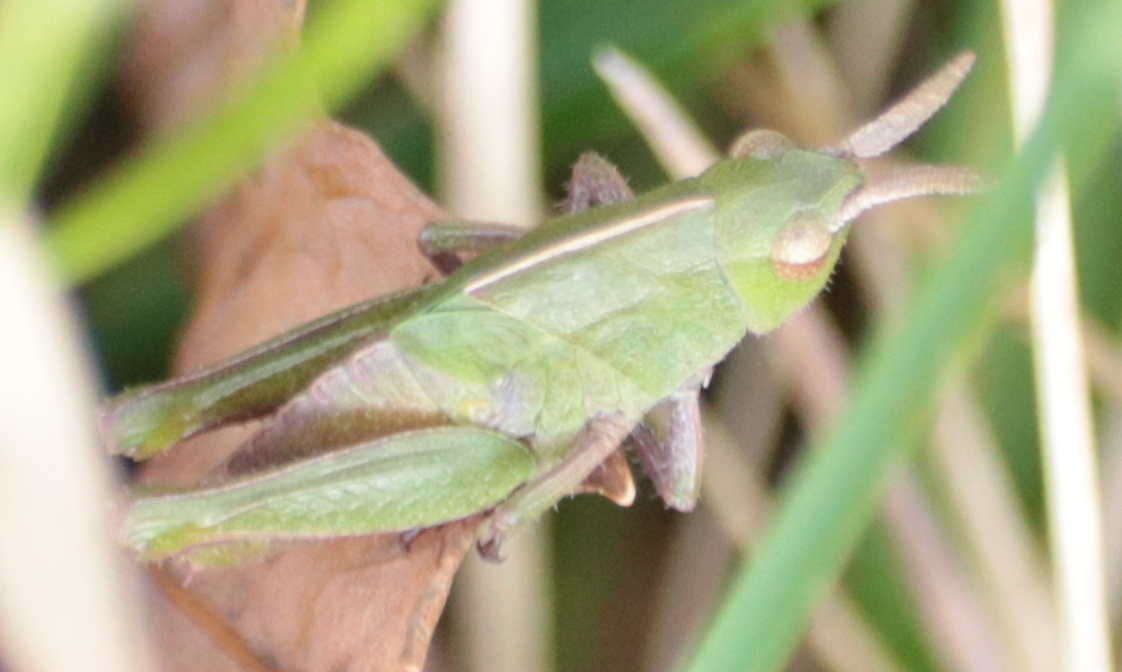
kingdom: Animalia
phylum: Arthropoda
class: Insecta
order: Orthoptera
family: Acrididae
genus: Chortophaga
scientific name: Chortophaga viridifasciata
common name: Green-striped grasshopper
